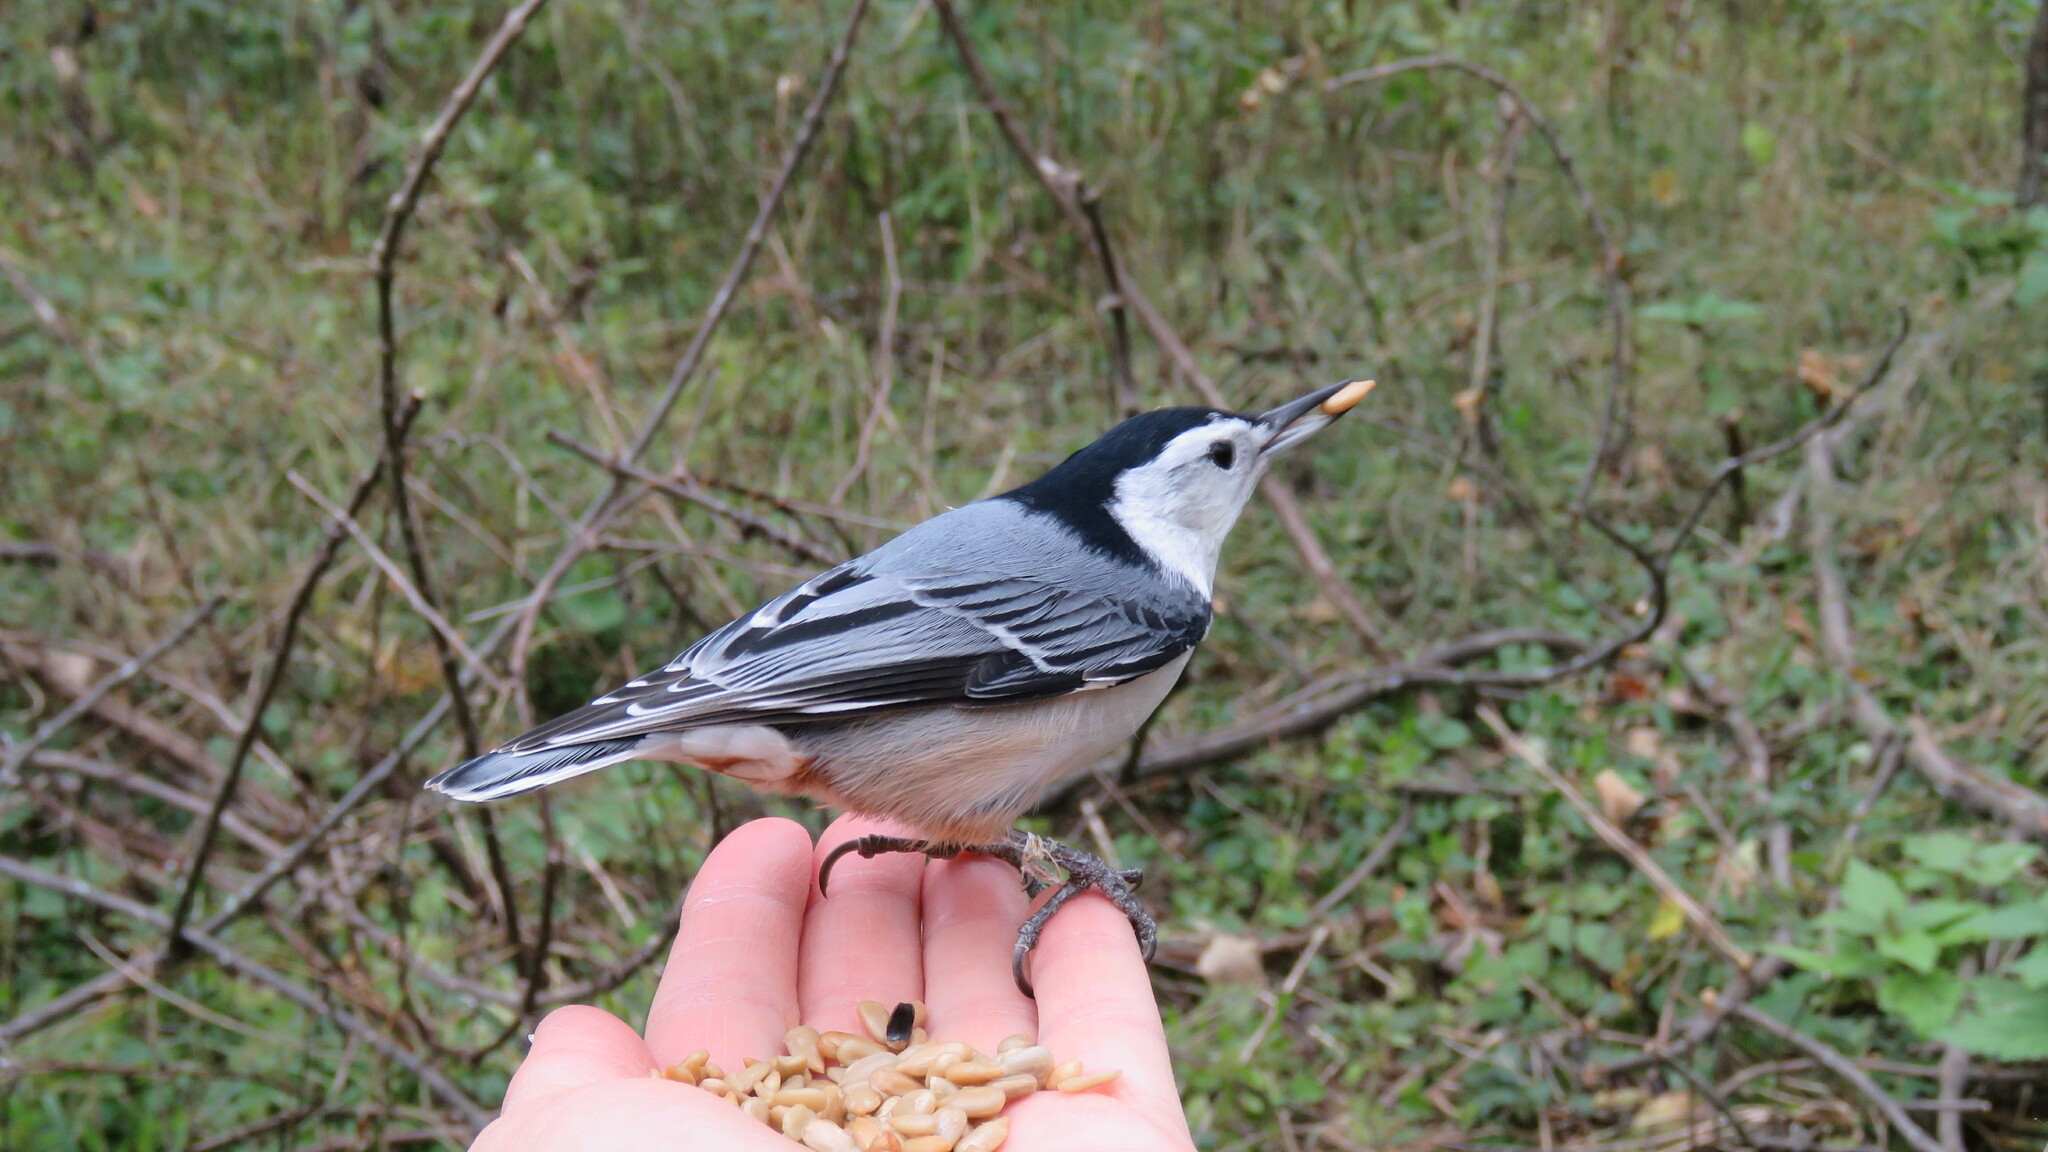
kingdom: Animalia
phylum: Chordata
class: Aves
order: Passeriformes
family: Sittidae
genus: Sitta
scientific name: Sitta carolinensis
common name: White-breasted nuthatch
